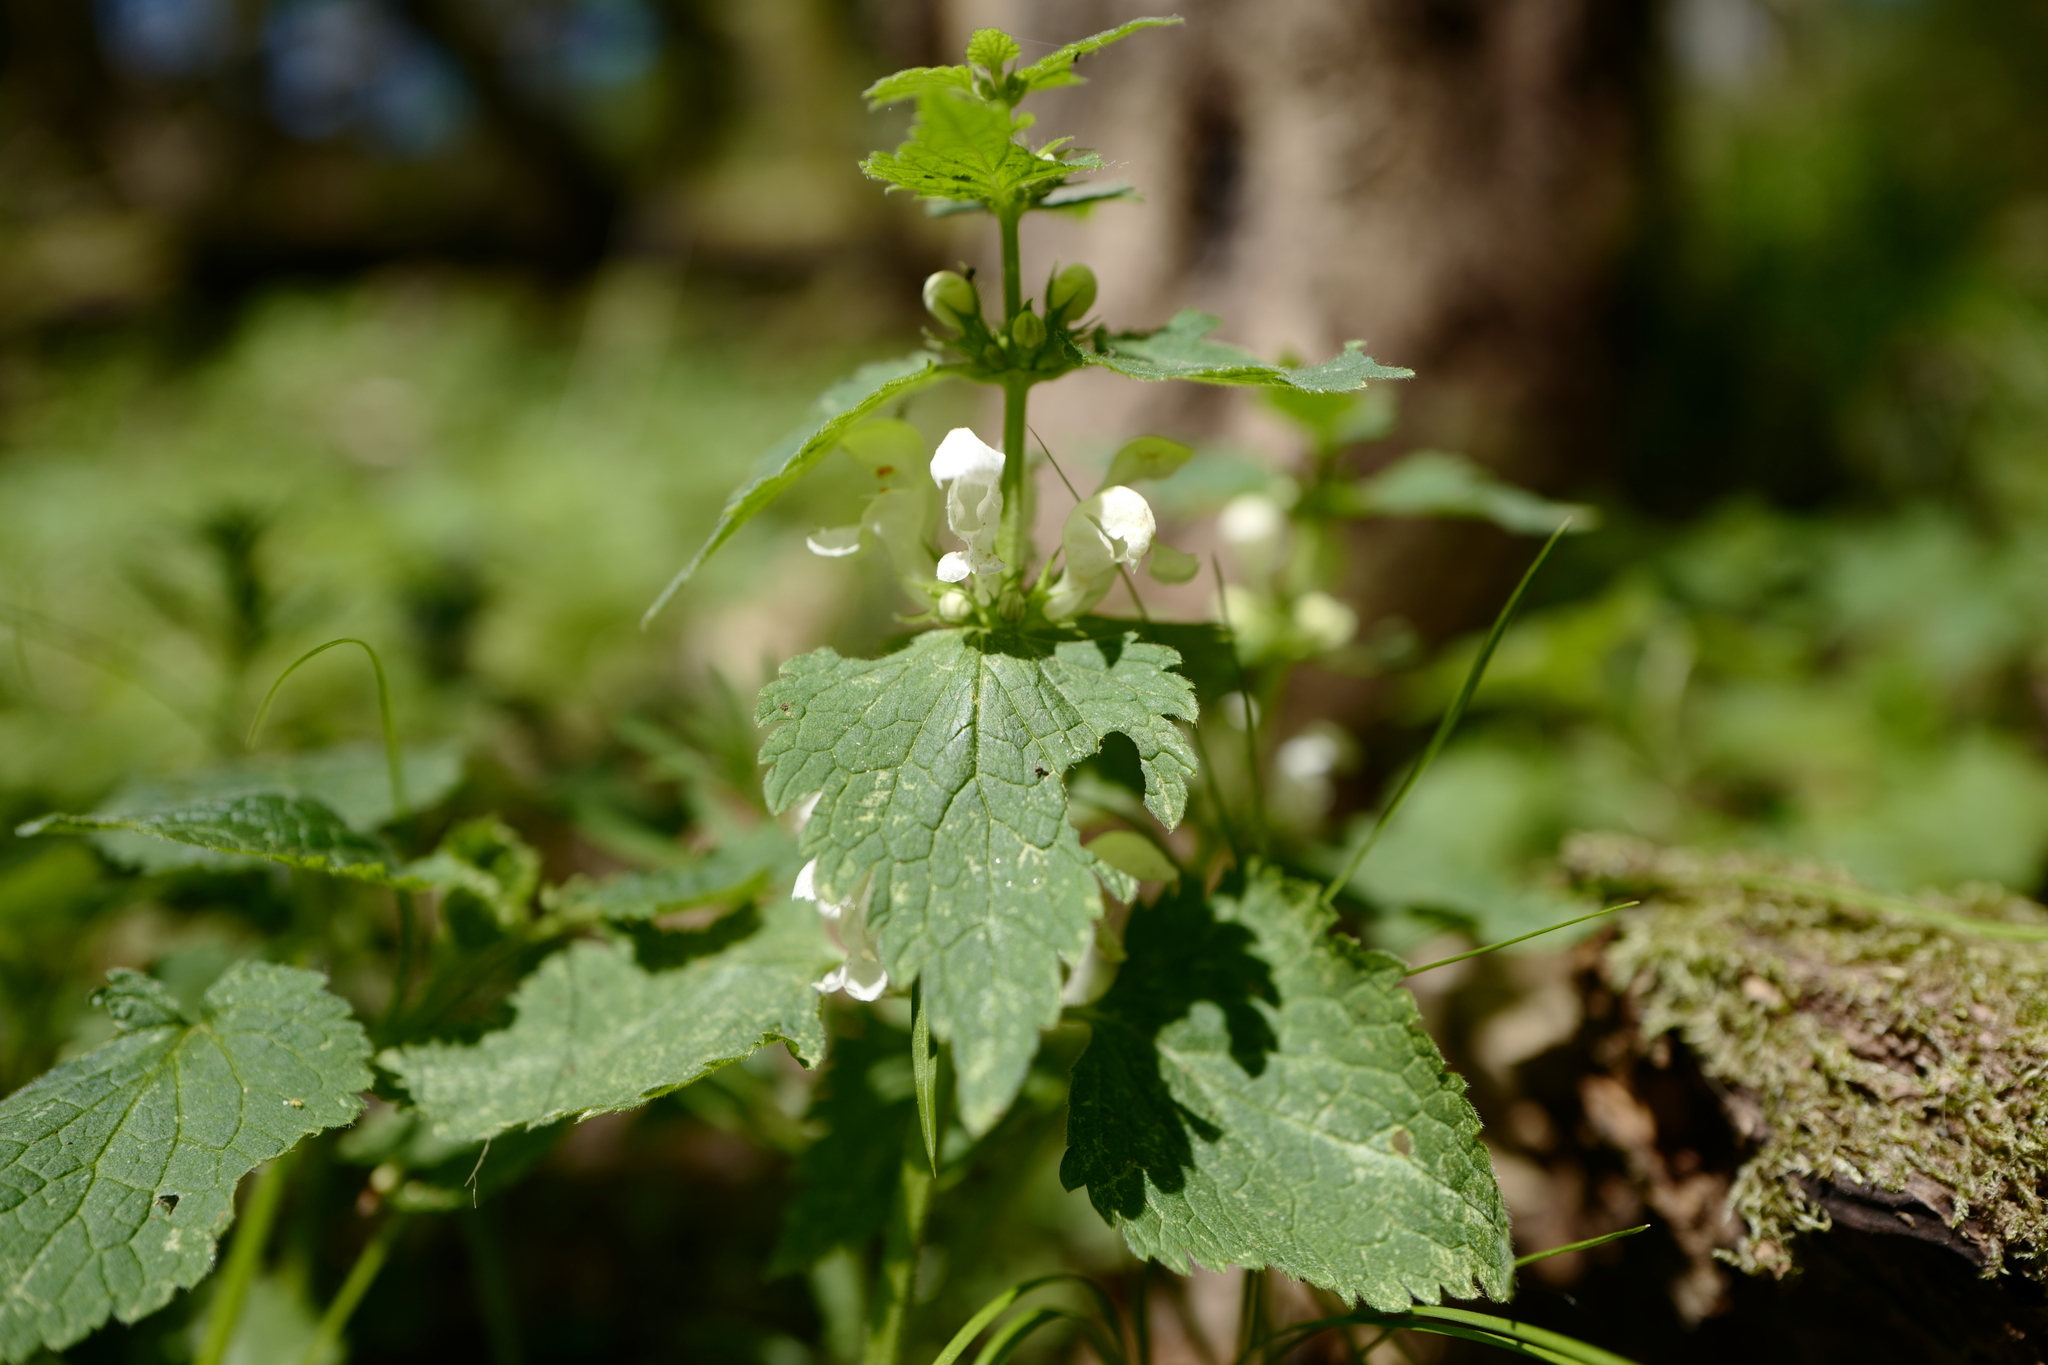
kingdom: Plantae
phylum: Tracheophyta
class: Magnoliopsida
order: Lamiales
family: Lamiaceae
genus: Lamium
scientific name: Lamium album
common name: White dead-nettle
